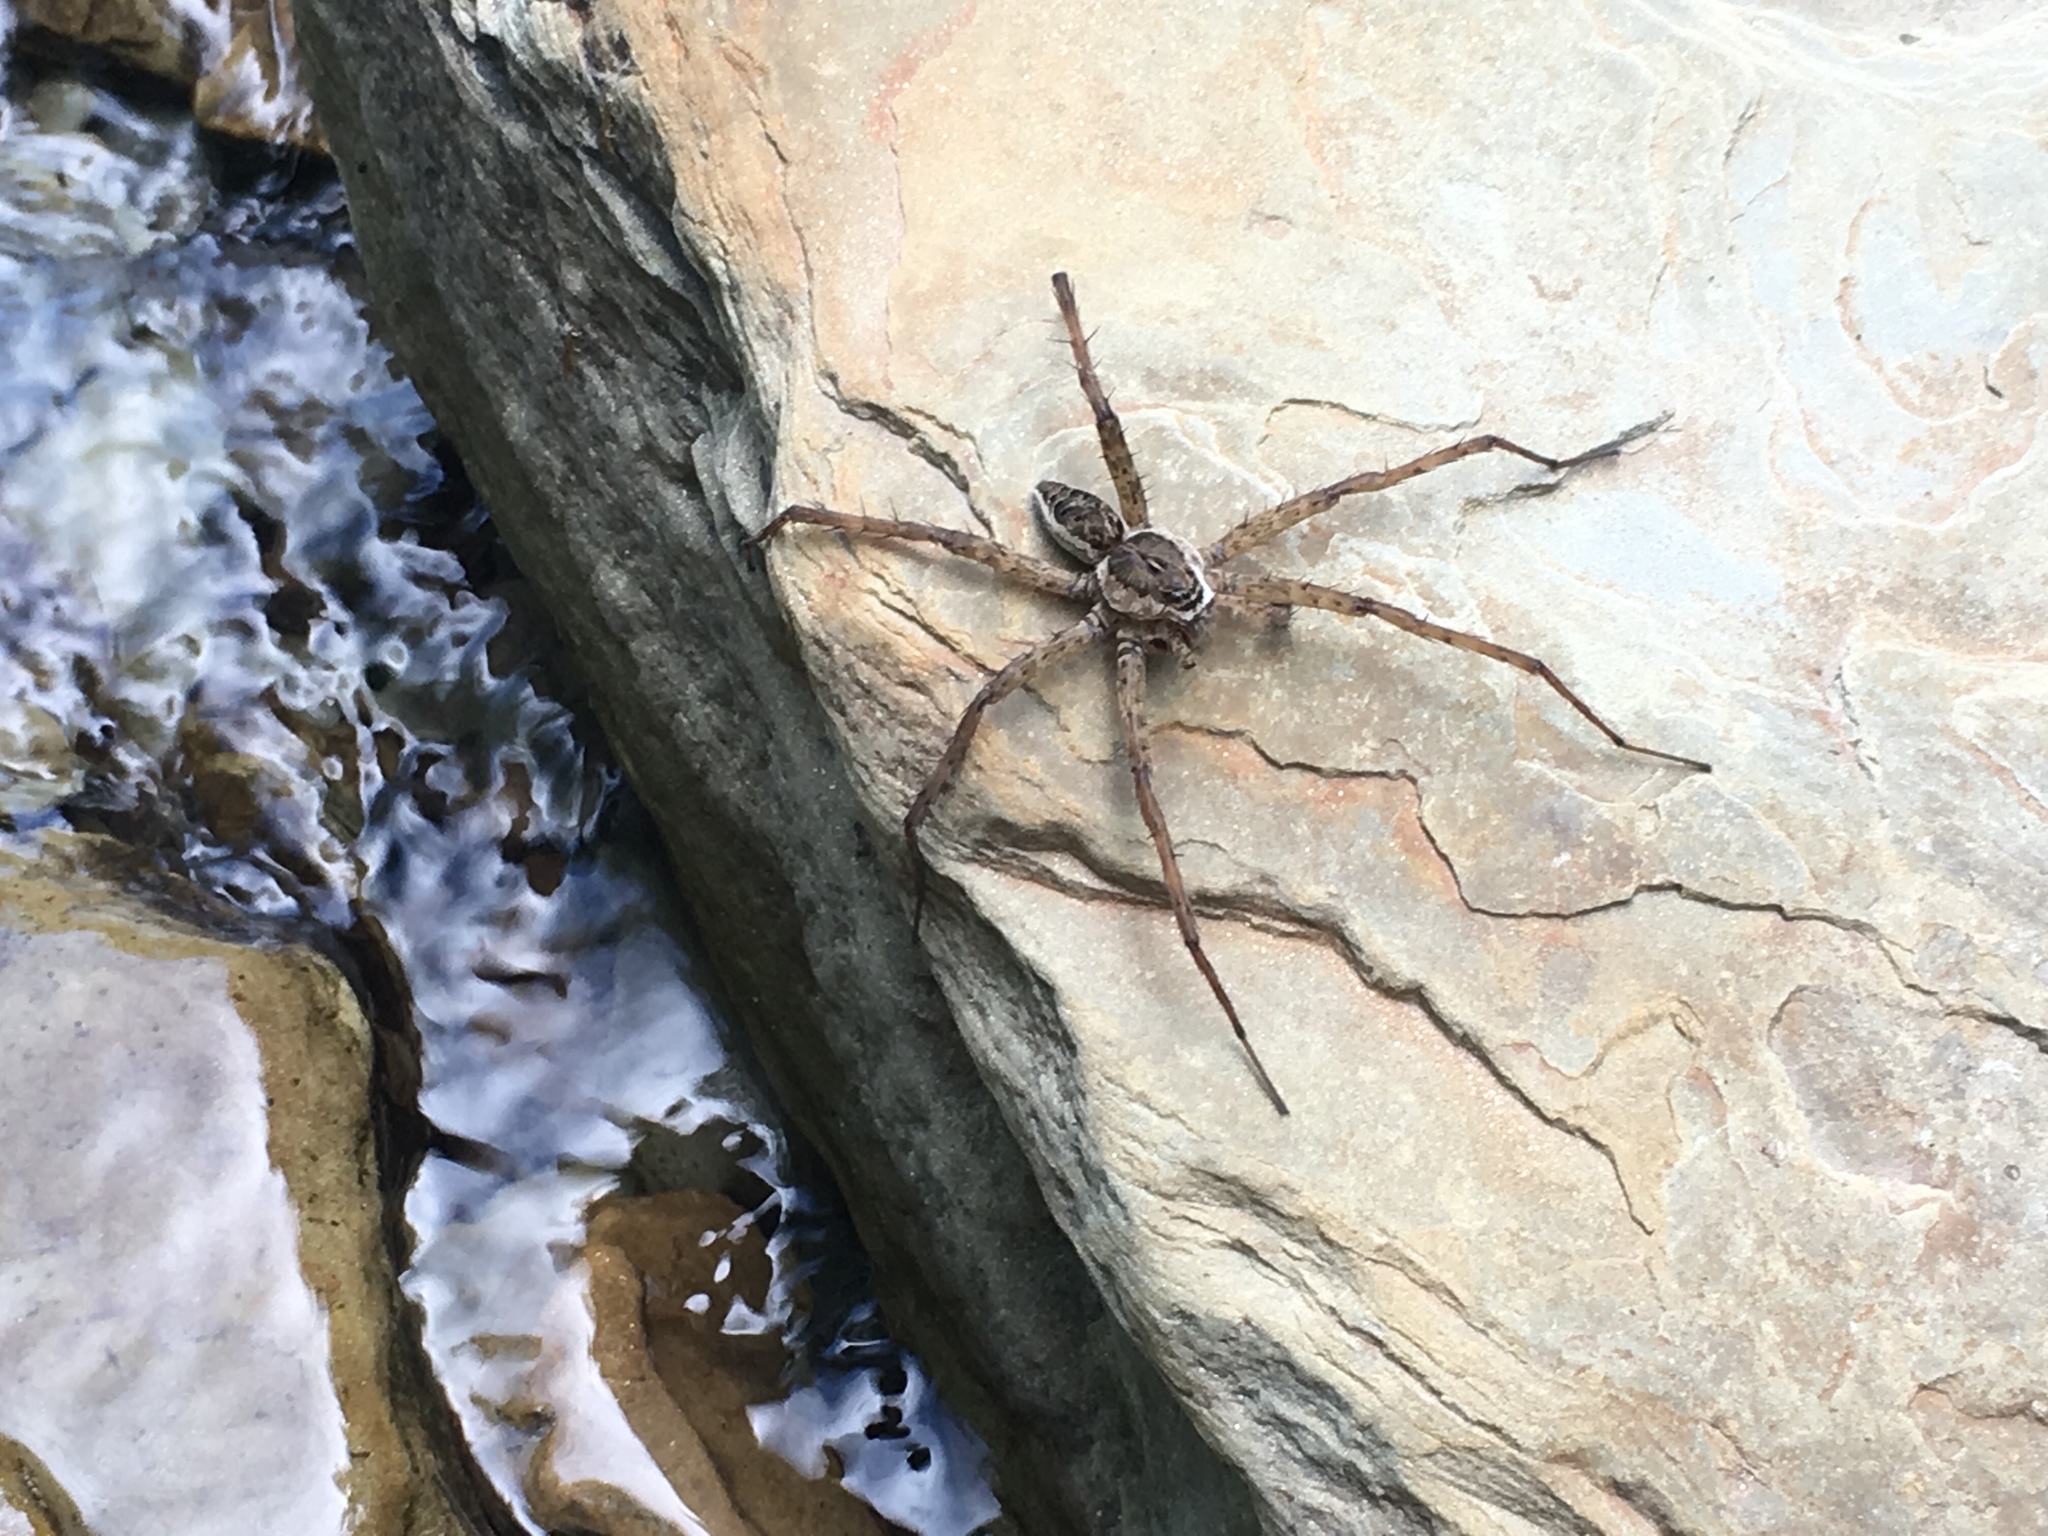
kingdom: Animalia
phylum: Arthropoda
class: Arachnida
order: Araneae
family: Pisauridae
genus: Dolomedes
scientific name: Dolomedes scriptus
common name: Striped fishing spider
